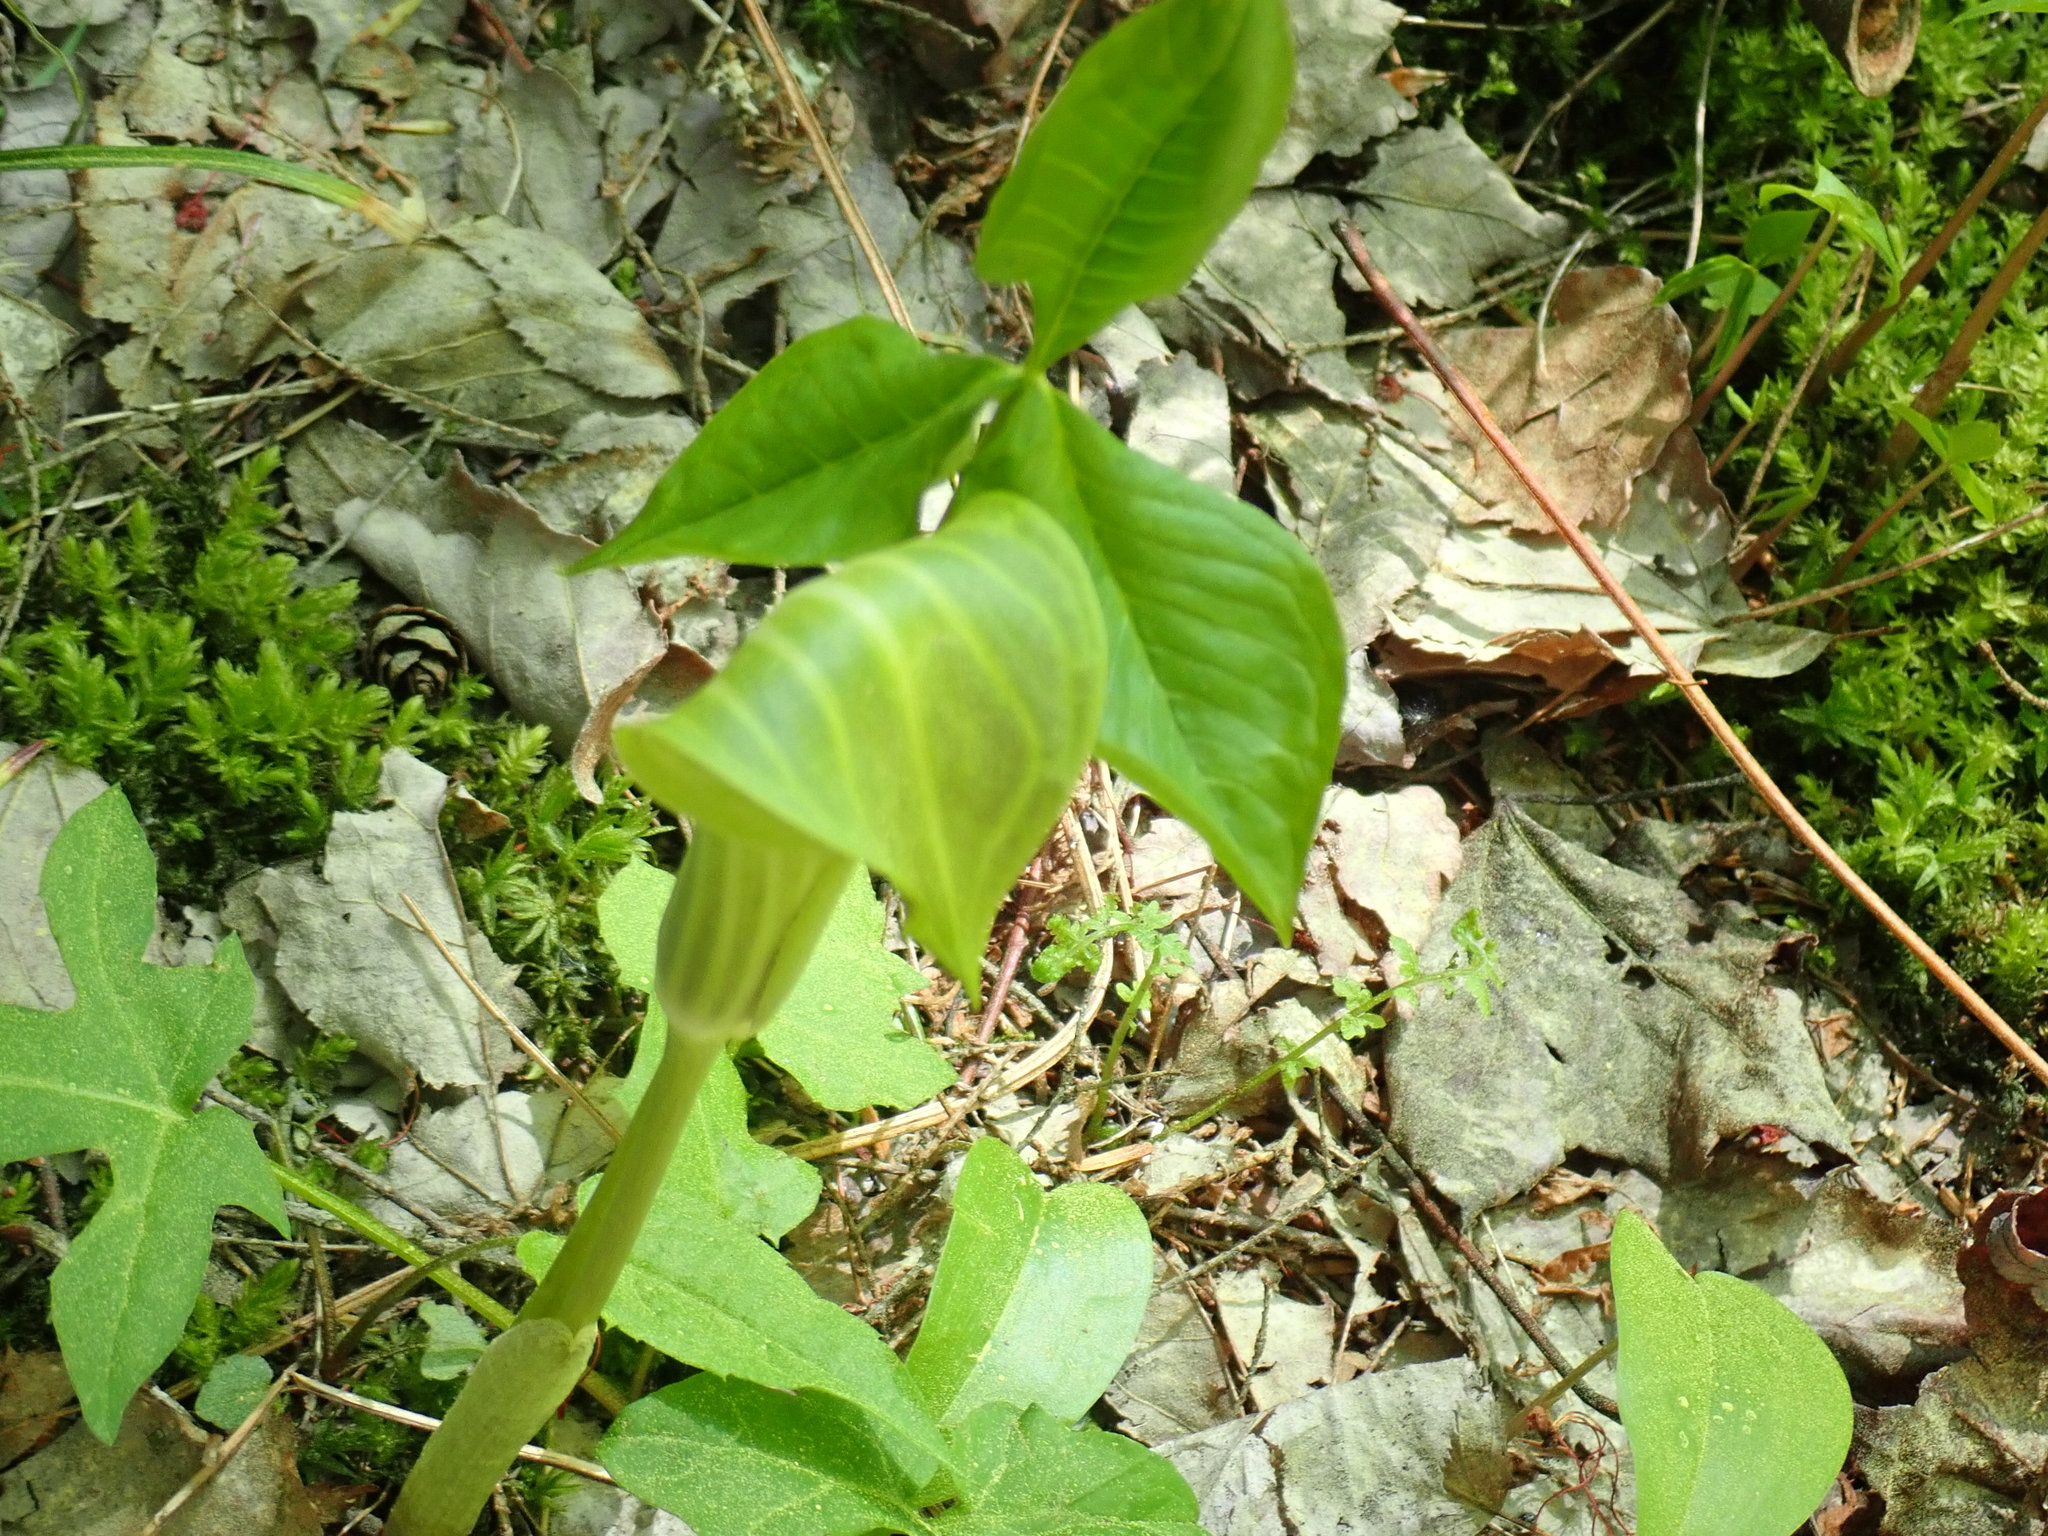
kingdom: Plantae
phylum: Tracheophyta
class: Liliopsida
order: Alismatales
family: Araceae
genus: Arisaema
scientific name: Arisaema triphyllum
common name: Jack-in-the-pulpit
